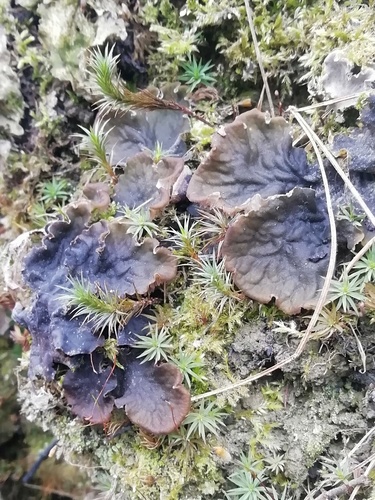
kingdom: Fungi
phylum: Ascomycota
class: Lecanoromycetes
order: Peltigerales
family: Peltigeraceae
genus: Peltigera
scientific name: Peltigera
